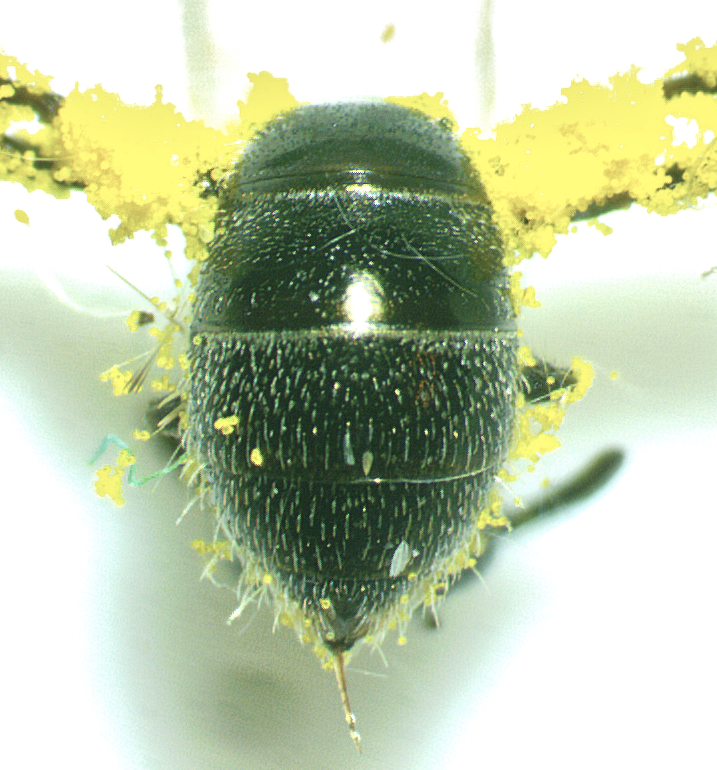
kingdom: Animalia
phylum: Arthropoda
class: Insecta
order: Hymenoptera
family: Halictidae
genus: Lasioglossum
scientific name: Lasioglossum imitatum
